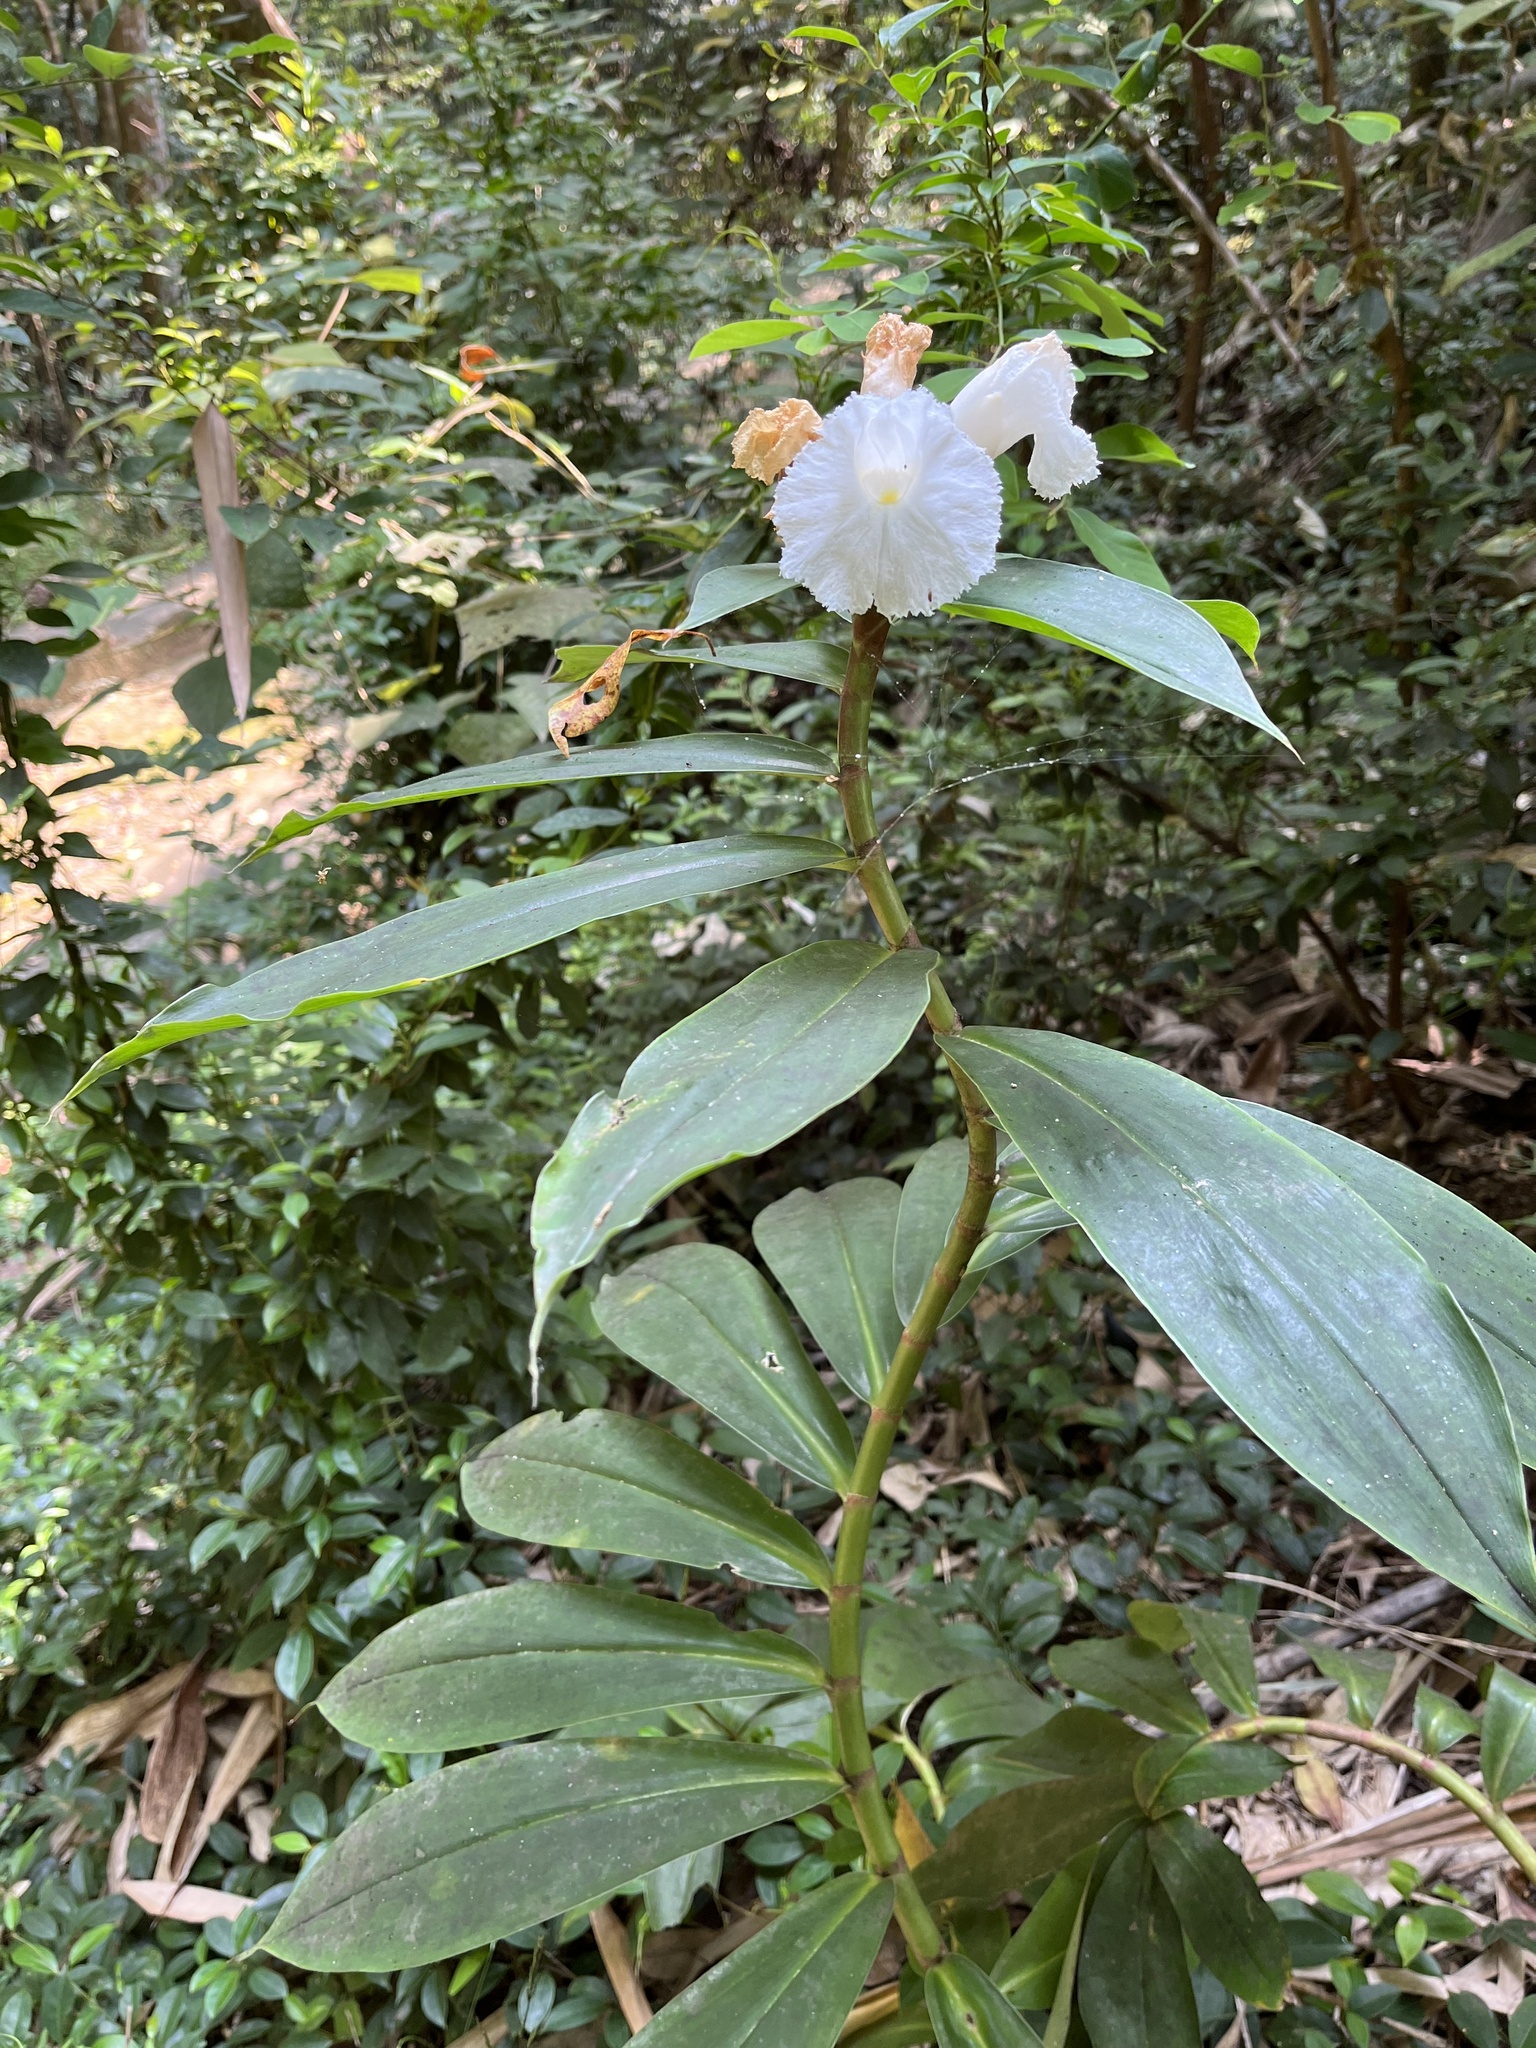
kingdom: Plantae
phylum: Tracheophyta
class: Liliopsida
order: Zingiberales
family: Costaceae
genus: Hellenia
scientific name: Hellenia speciosa
